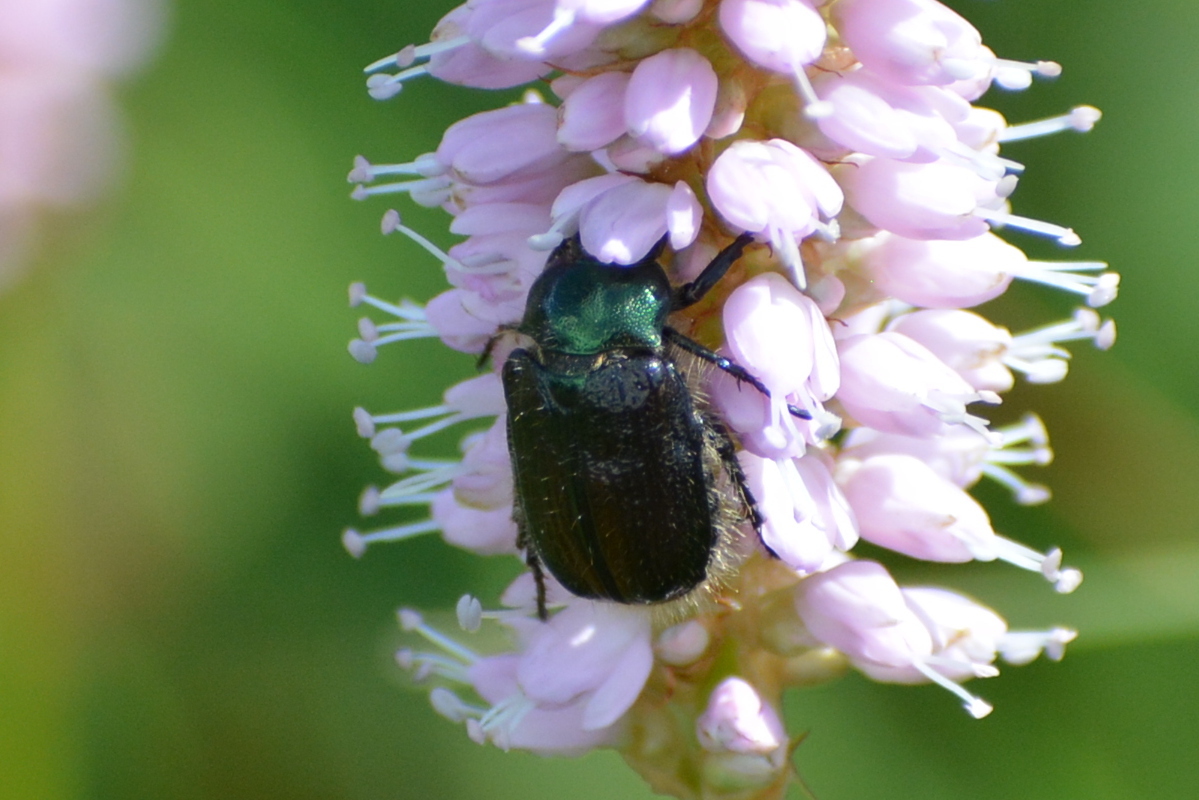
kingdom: Animalia
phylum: Arthropoda
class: Insecta
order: Coleoptera
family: Scarabaeidae
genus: Phyllopertha
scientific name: Phyllopertha horticola
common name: Garden chafer
